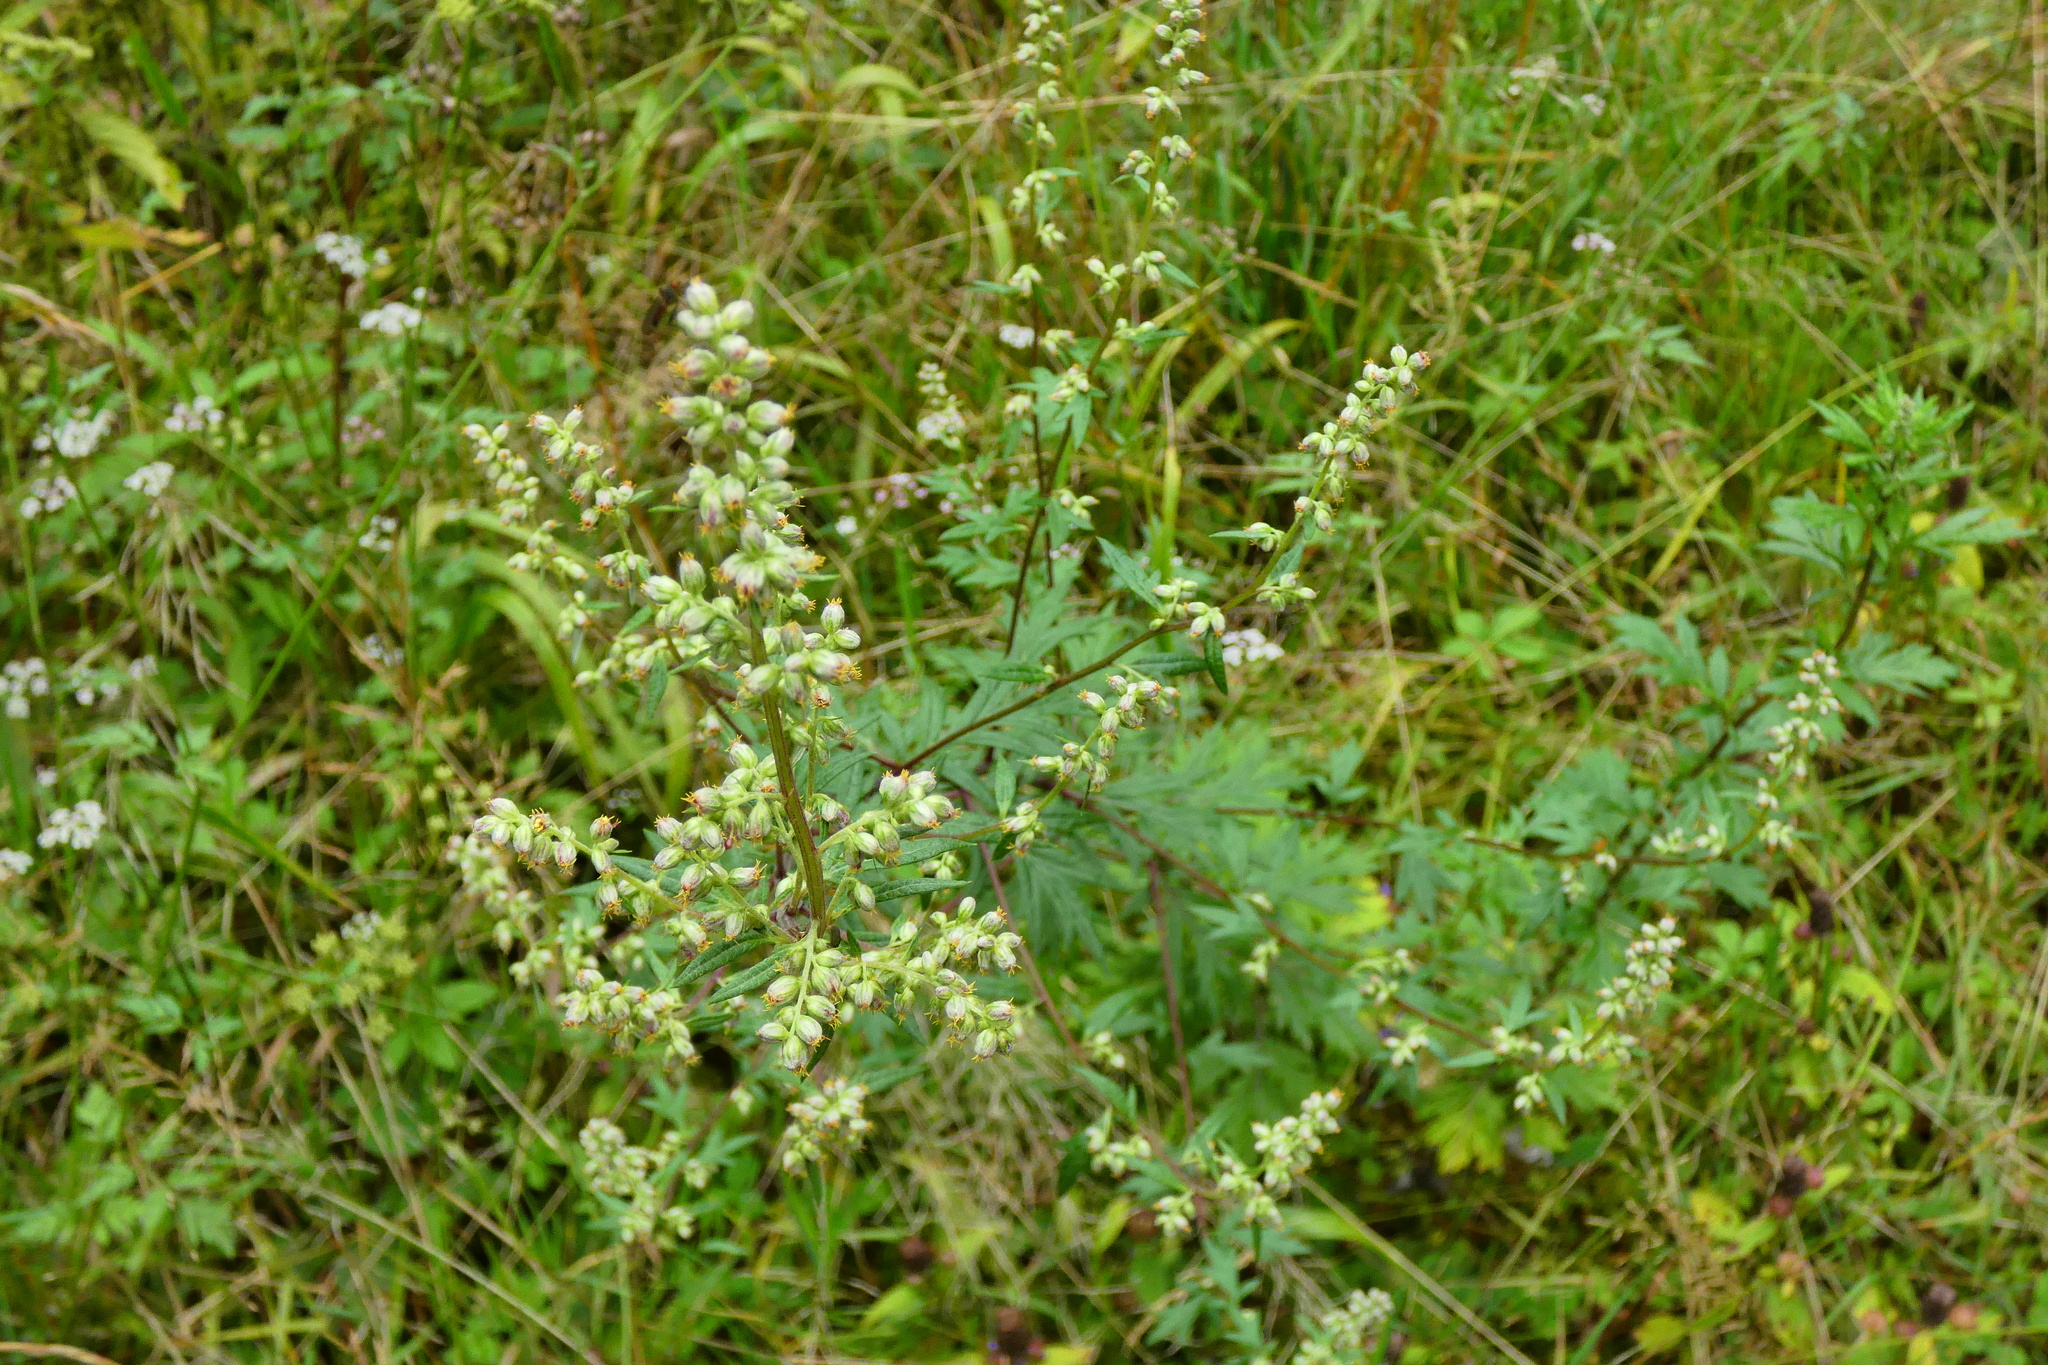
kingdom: Plantae
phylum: Tracheophyta
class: Magnoliopsida
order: Asterales
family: Asteraceae
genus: Artemisia
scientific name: Artemisia vulgaris
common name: Mugwort
